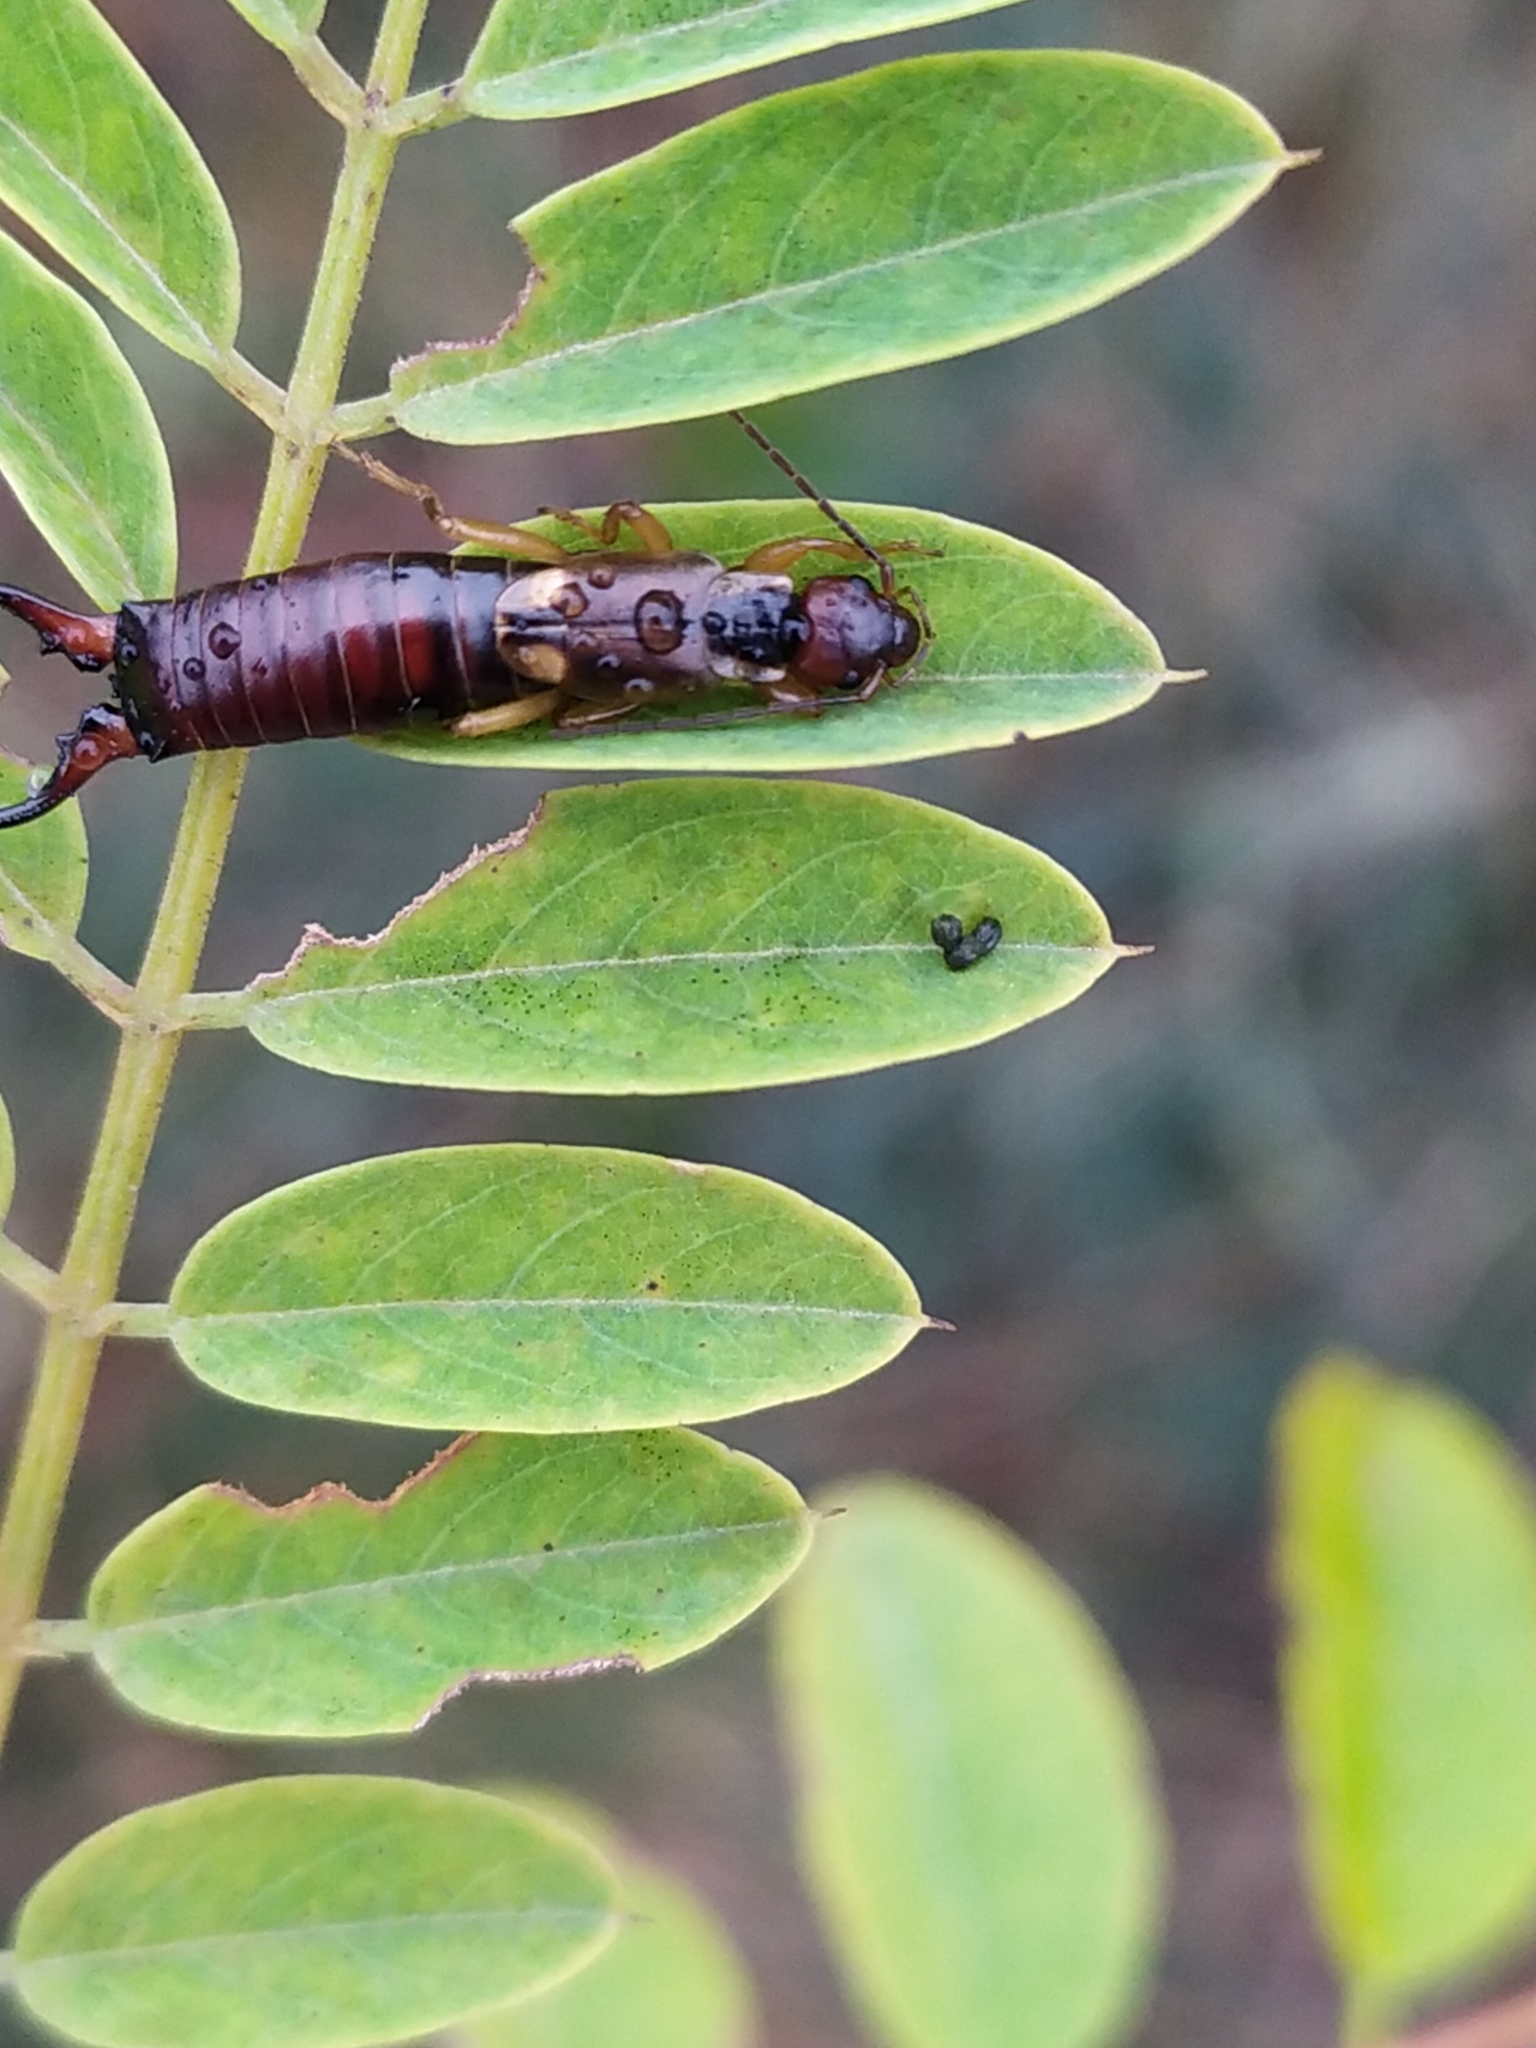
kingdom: Animalia
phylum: Arthropoda
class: Insecta
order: Dermaptera
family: Forficulidae
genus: Forficula
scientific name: Forficula
